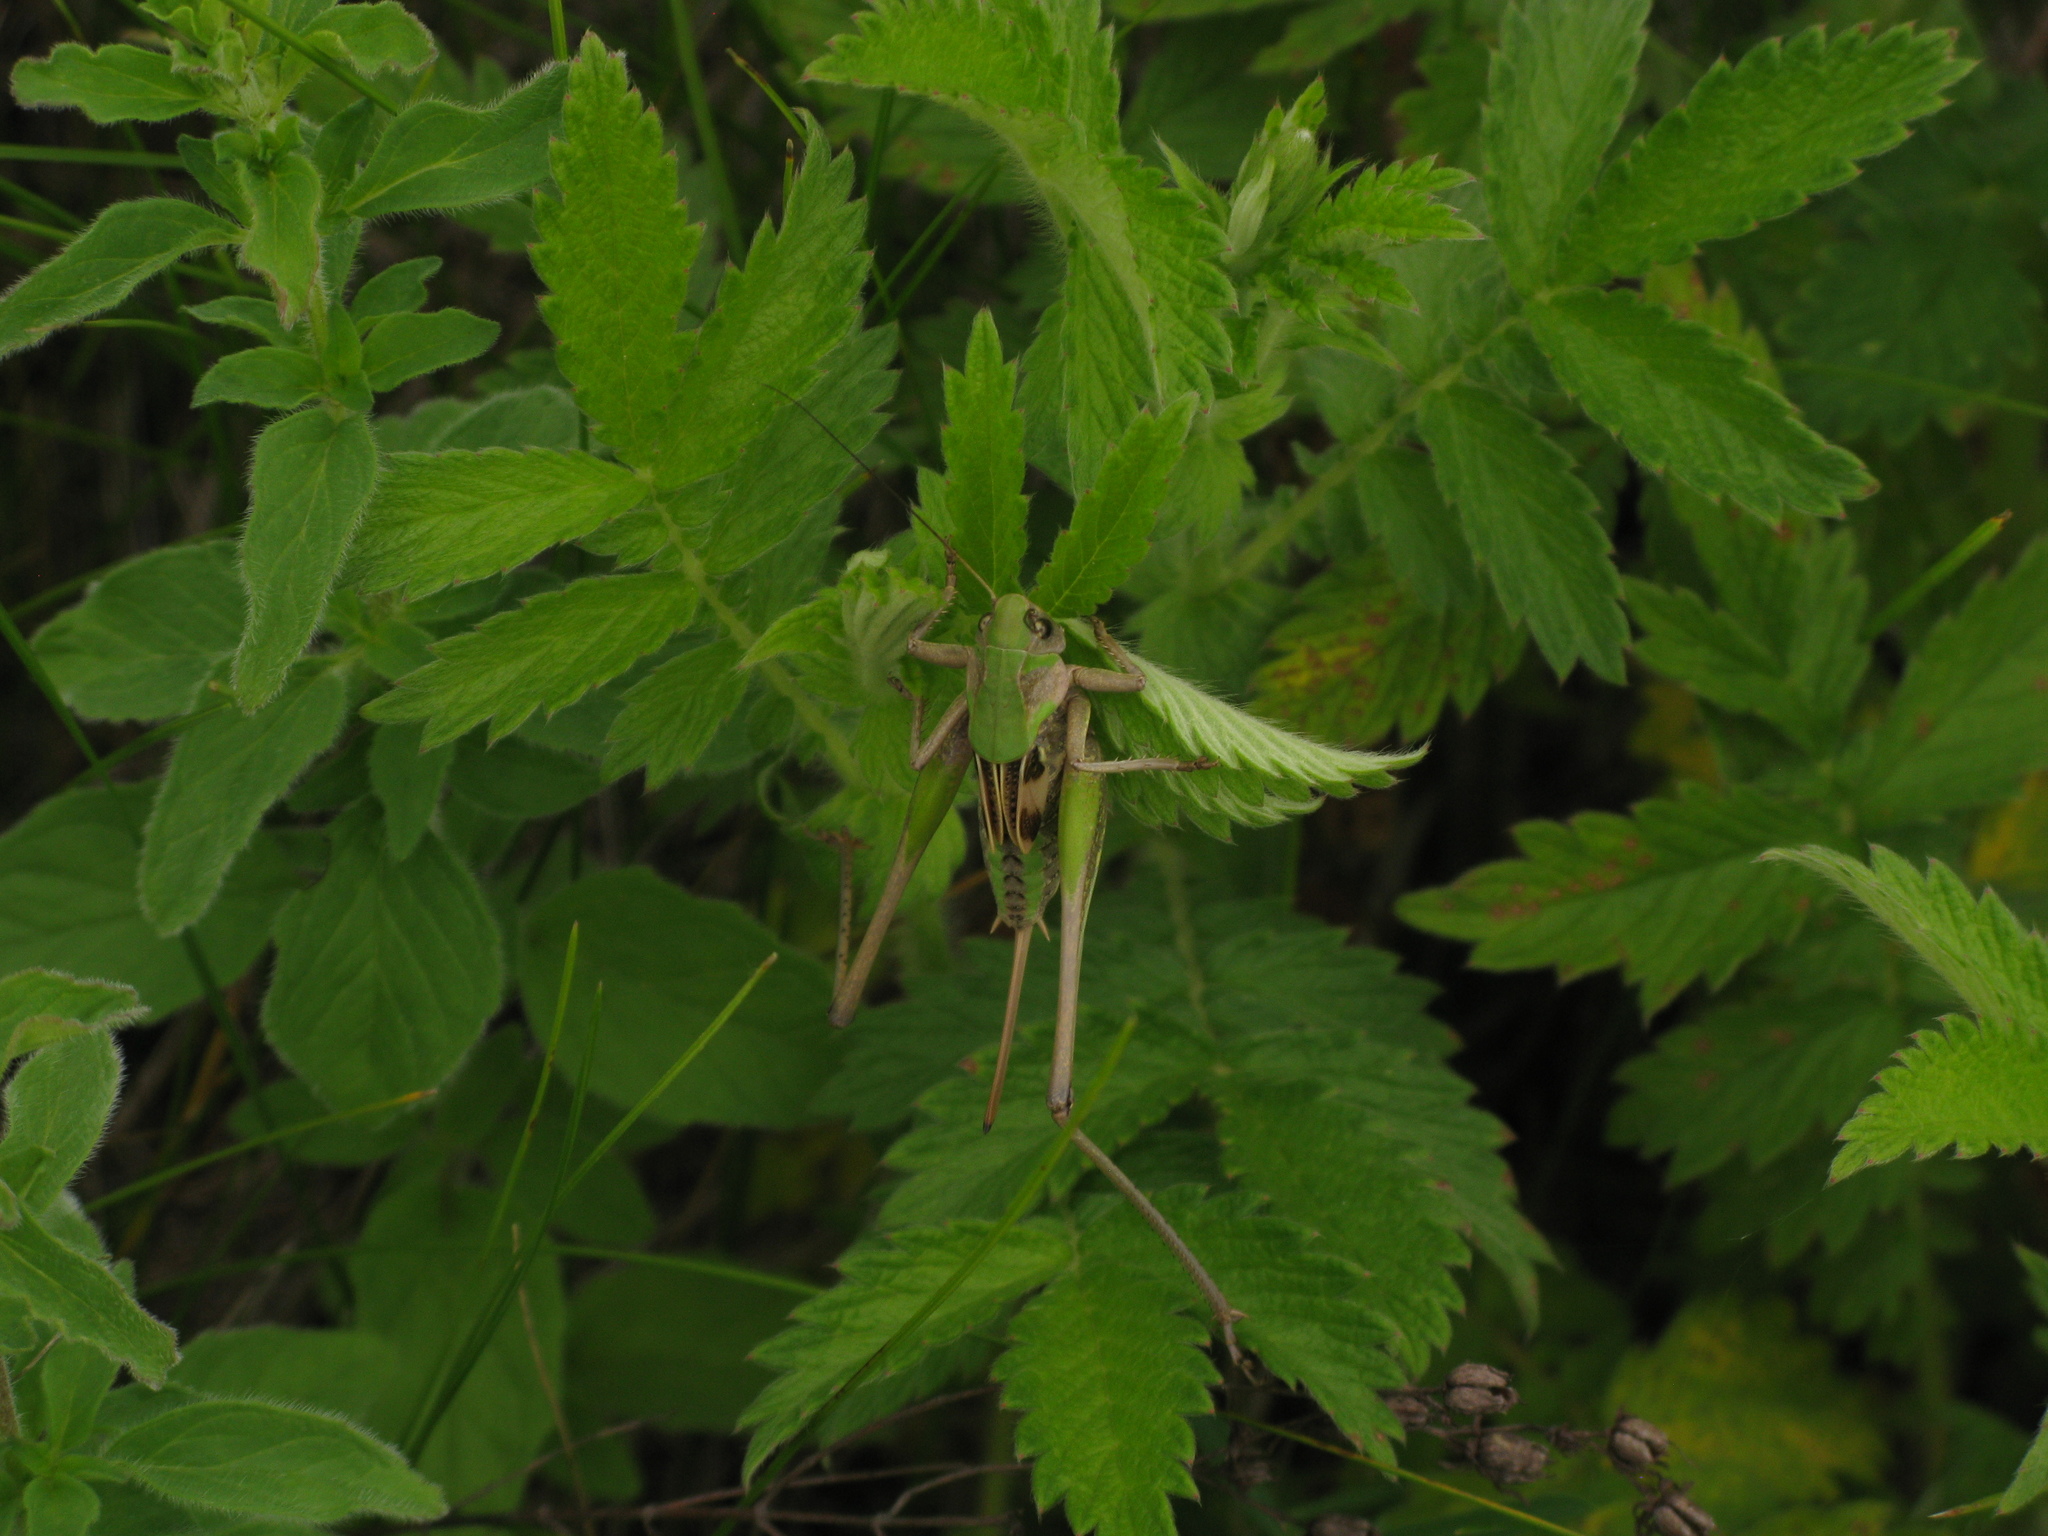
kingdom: Animalia
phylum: Arthropoda
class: Insecta
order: Orthoptera
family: Tettigoniidae
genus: Decticus
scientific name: Decticus verrucivorus
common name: Wart-biter
